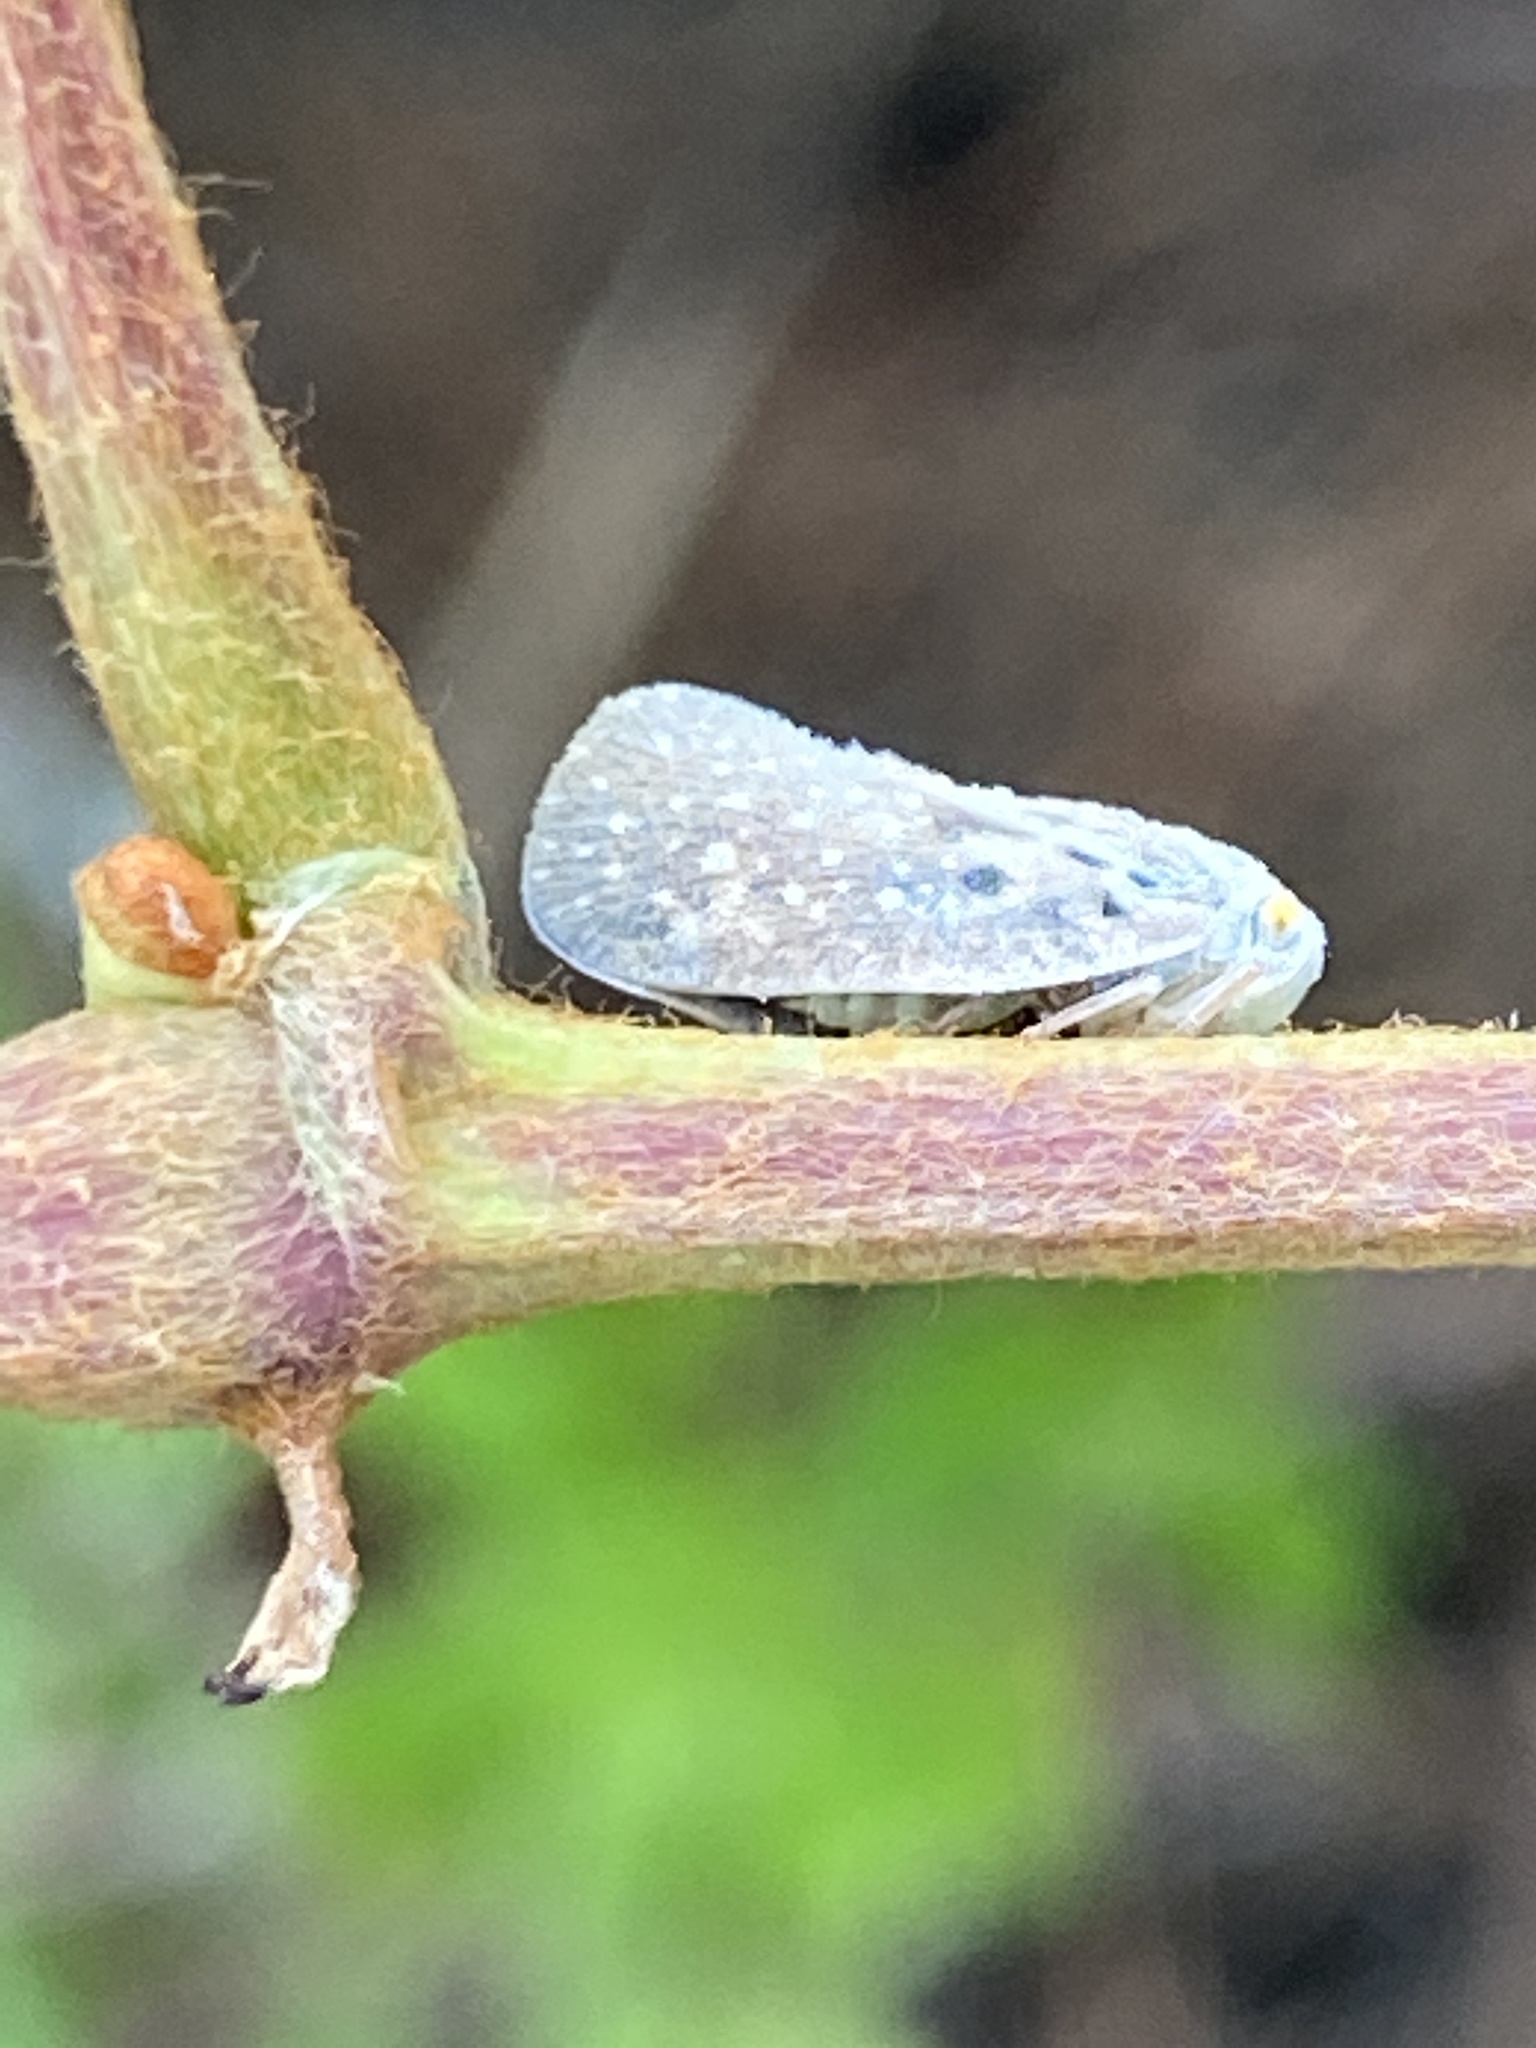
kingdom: Animalia
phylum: Arthropoda
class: Insecta
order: Hemiptera
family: Flatidae
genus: Metcalfa
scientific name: Metcalfa pruinosa
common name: Citrus flatid planthopper
